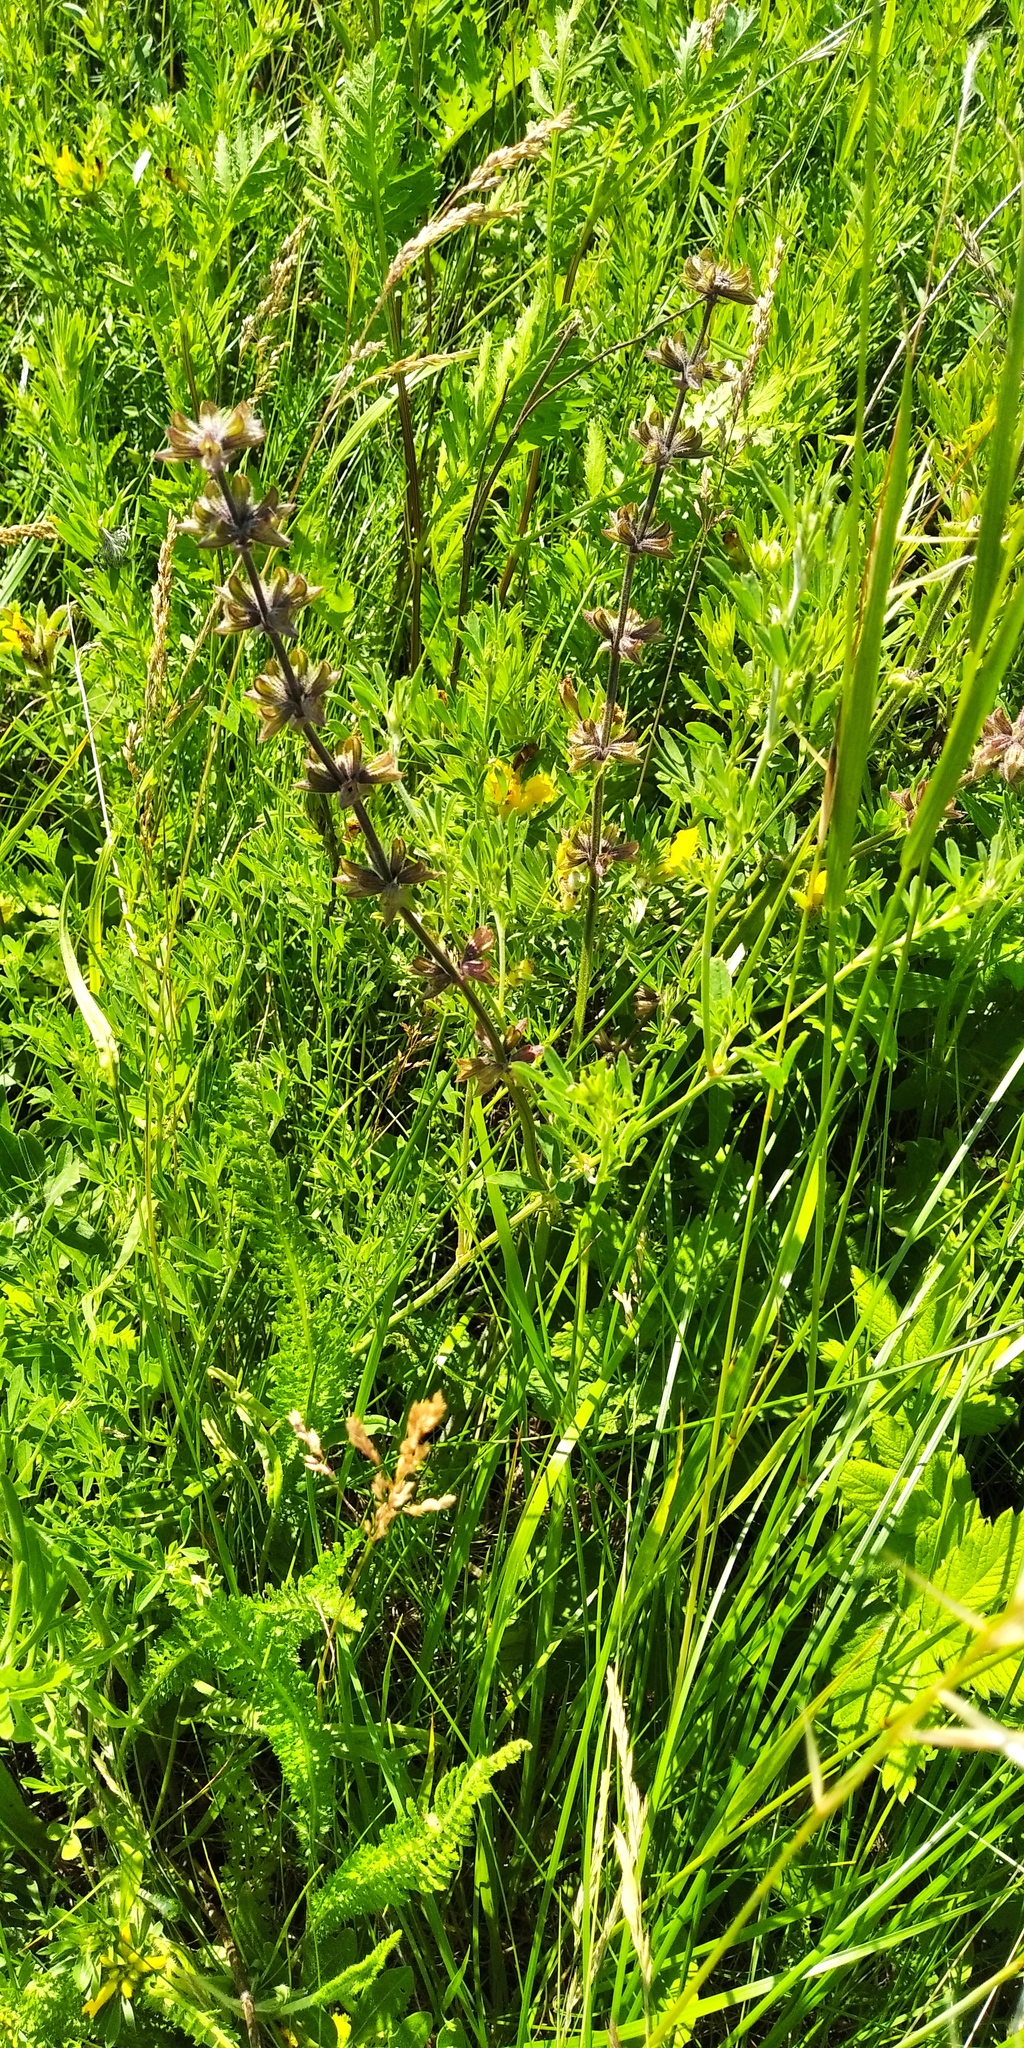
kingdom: Plantae
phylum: Tracheophyta
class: Magnoliopsida
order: Lamiales
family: Lamiaceae
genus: Salvia
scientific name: Salvia pratensis
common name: Meadow sage
